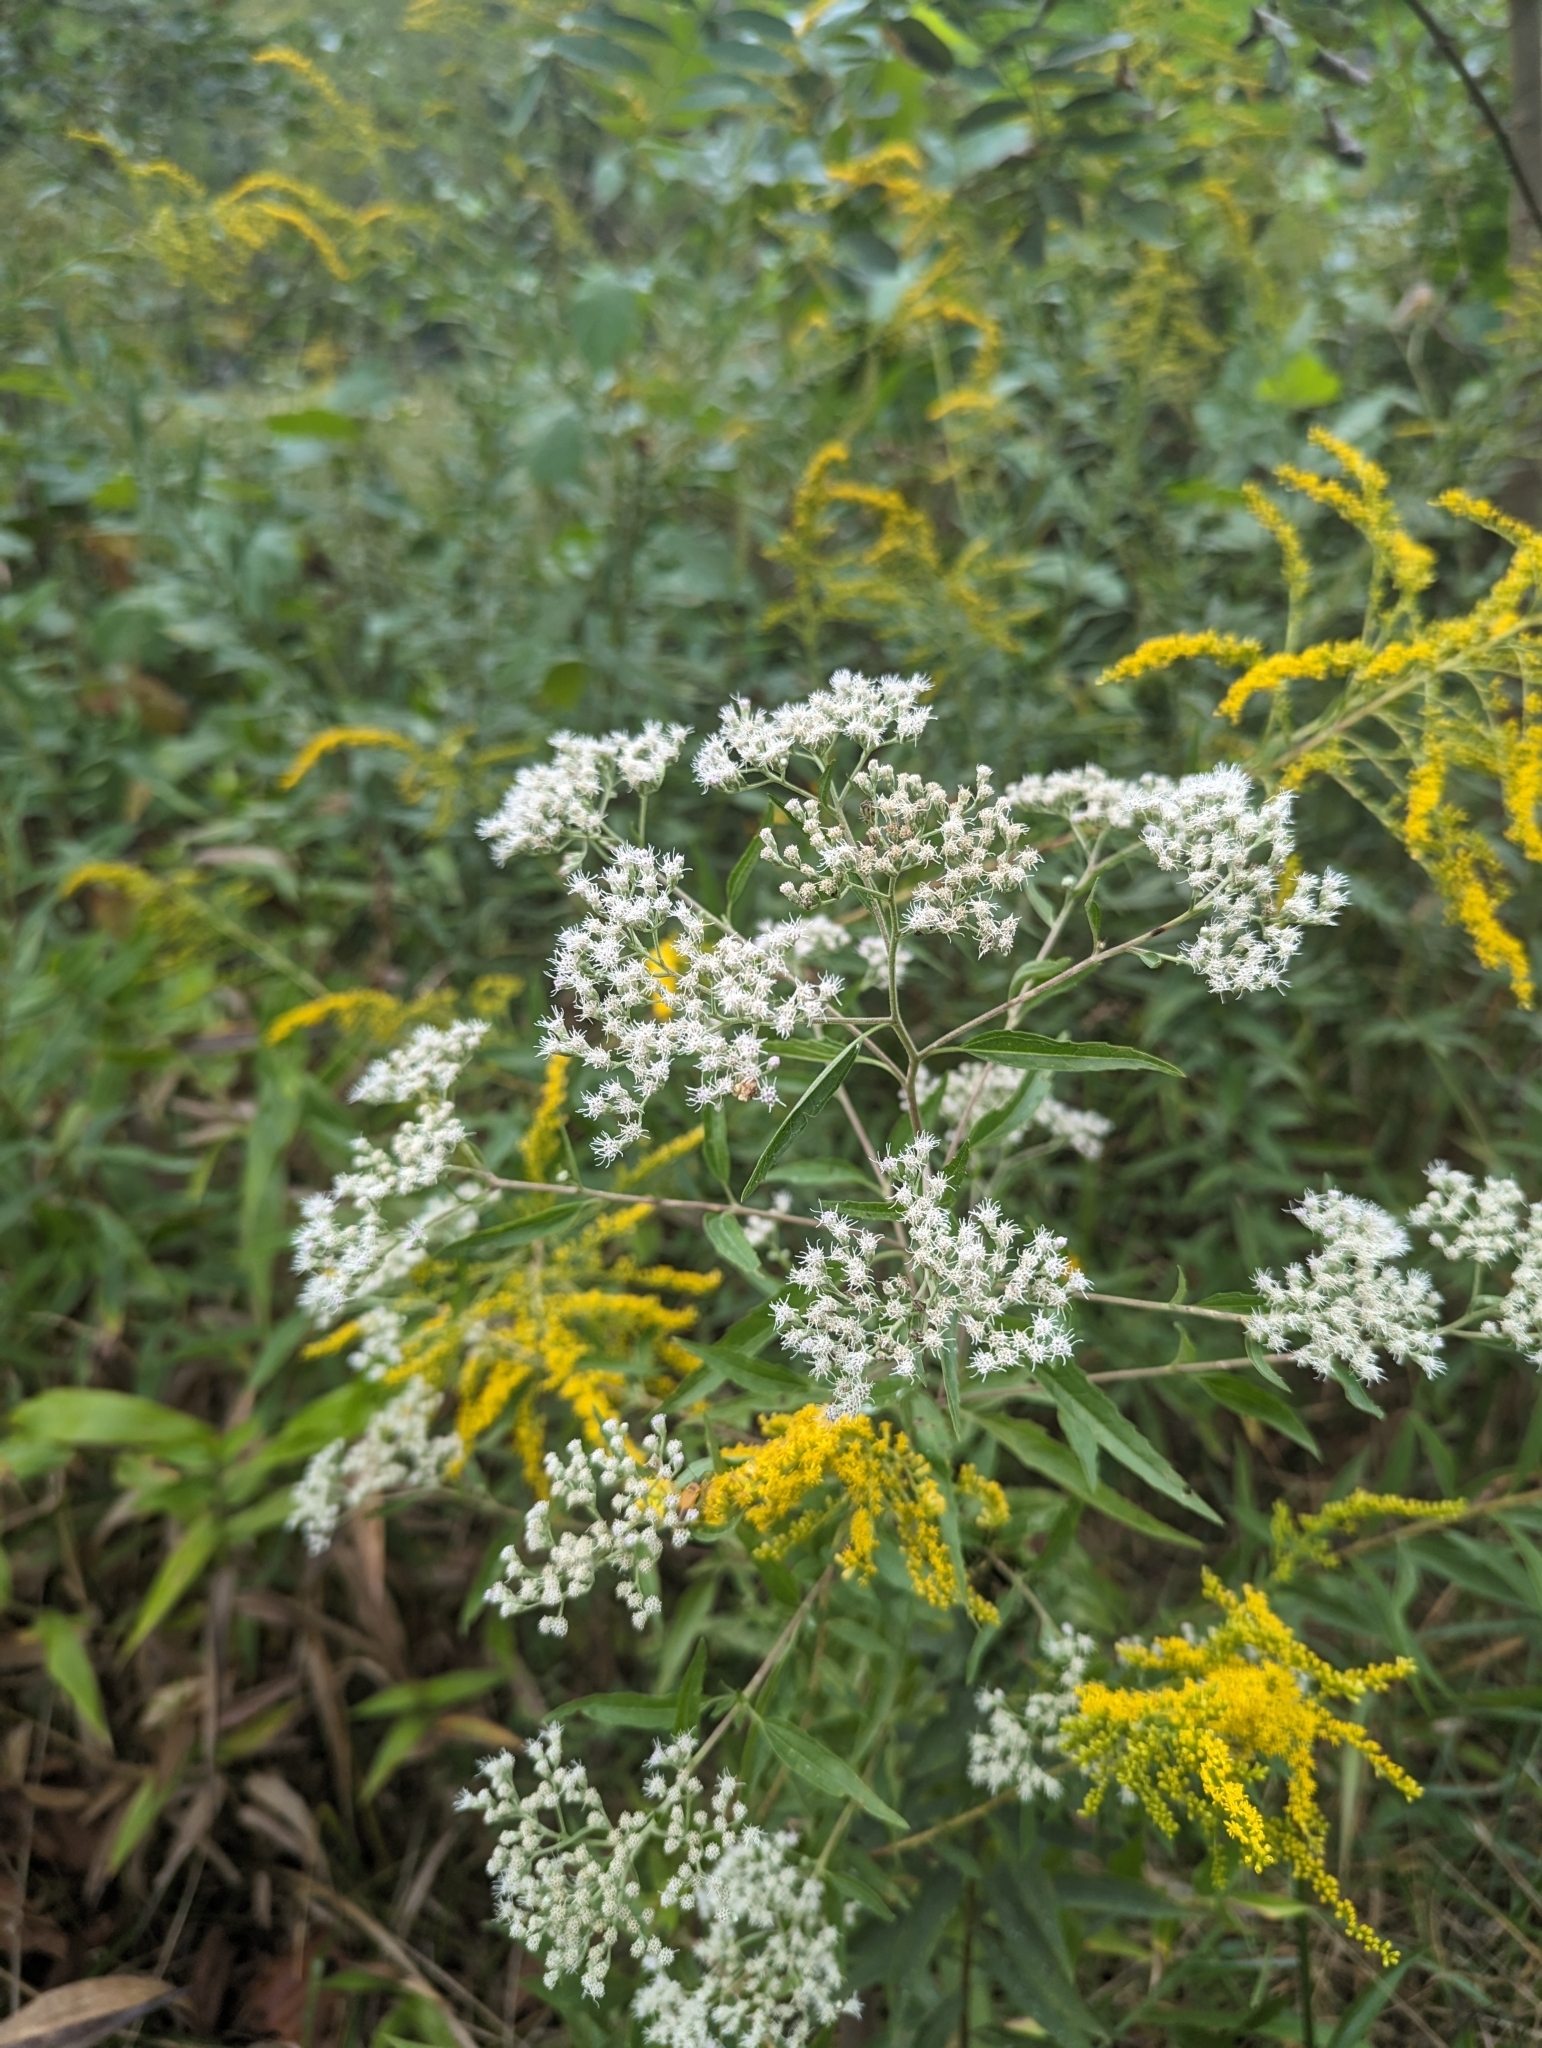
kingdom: Plantae
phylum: Tracheophyta
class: Magnoliopsida
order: Asterales
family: Asteraceae
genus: Eupatorium
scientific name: Eupatorium serotinum
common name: Late boneset
